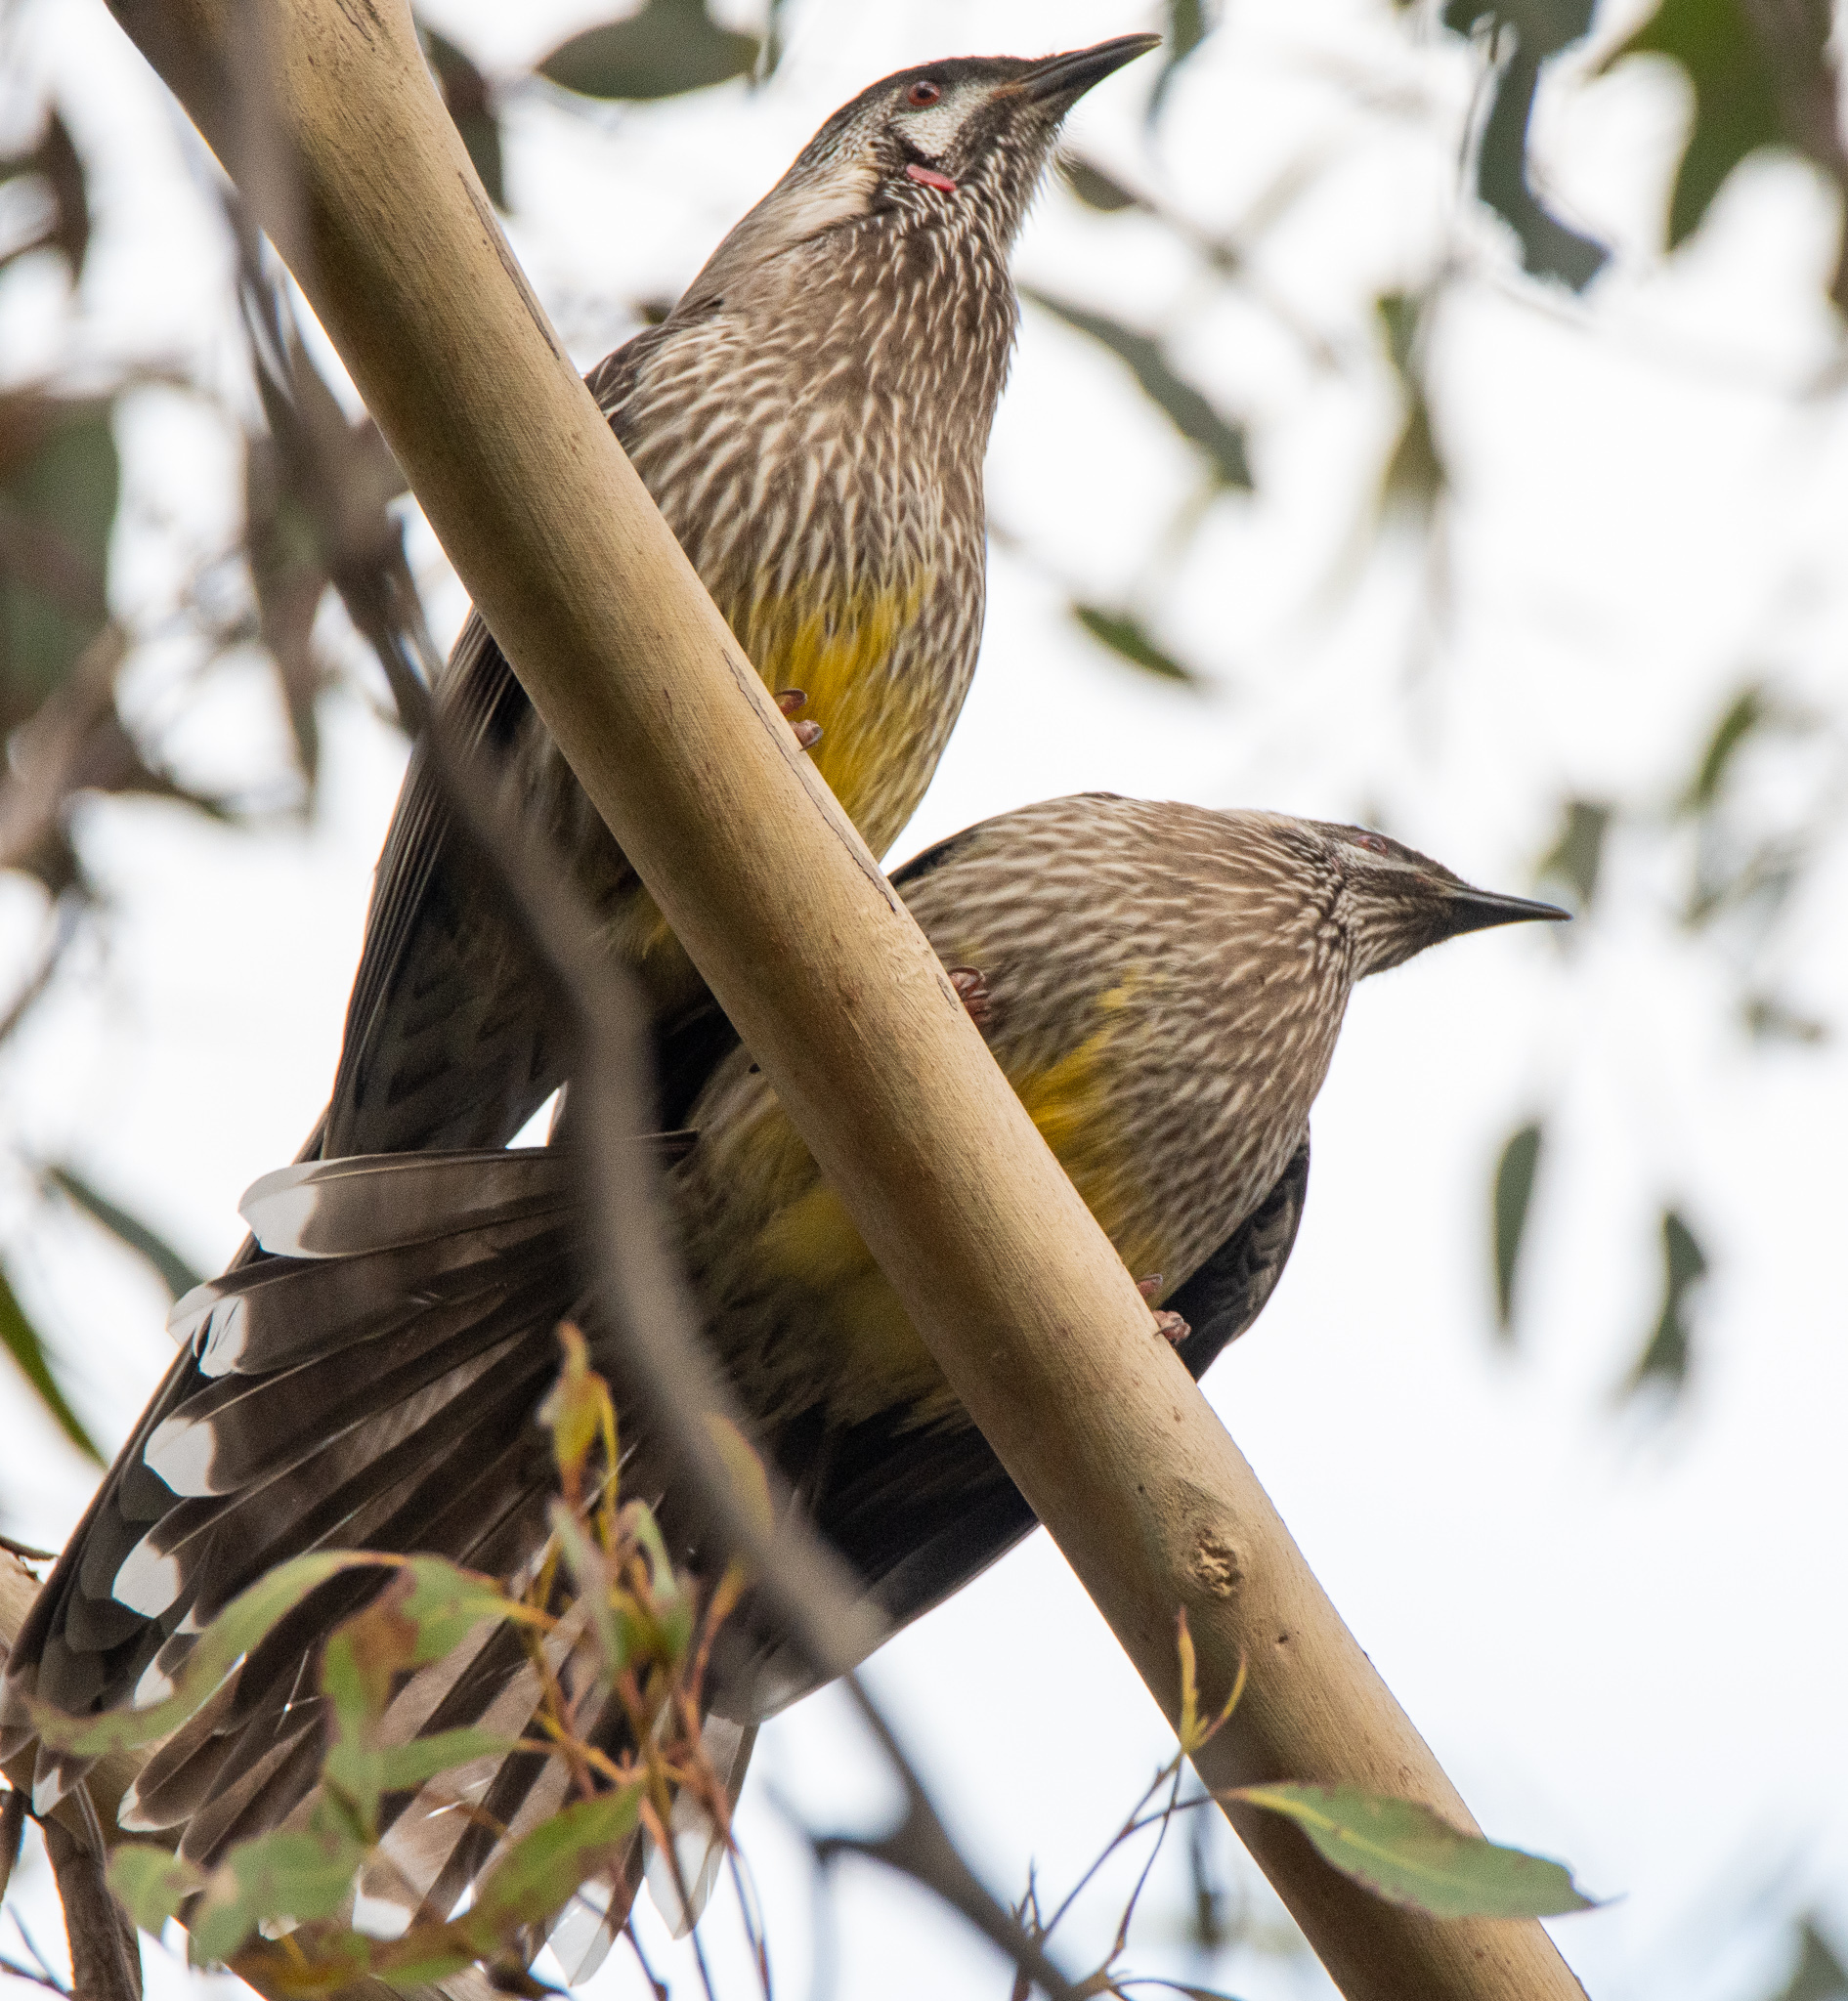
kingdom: Animalia
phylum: Chordata
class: Aves
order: Passeriformes
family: Meliphagidae
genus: Anthochaera
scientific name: Anthochaera carunculata
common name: Red wattlebird
